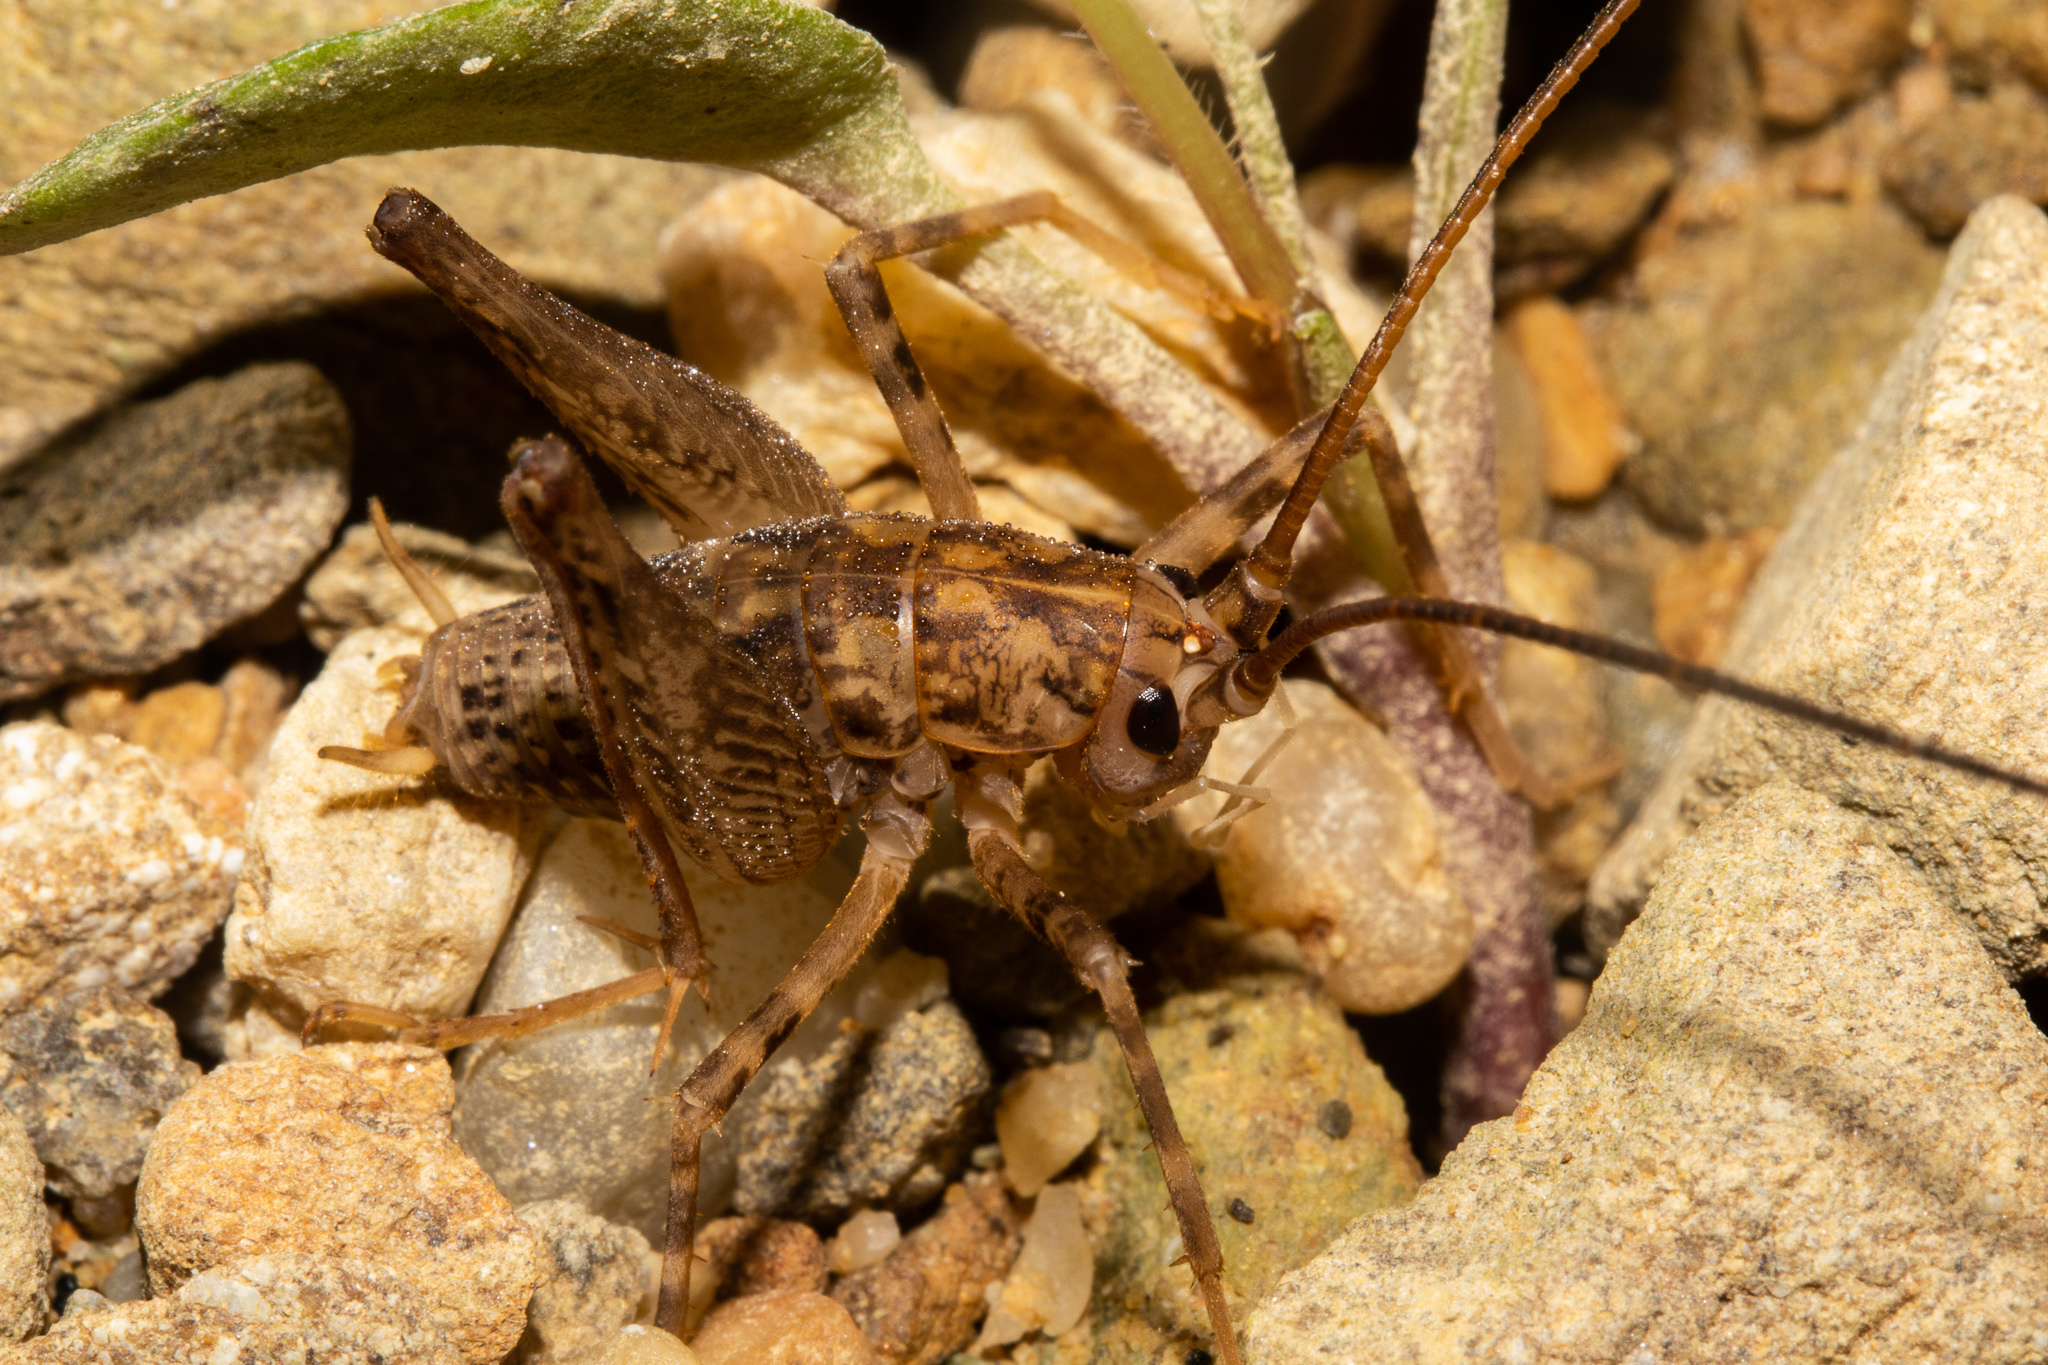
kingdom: Animalia
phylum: Arthropoda
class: Insecta
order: Orthoptera
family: Rhaphidophoridae
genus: Pleioplectron
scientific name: Pleioplectron simplex
